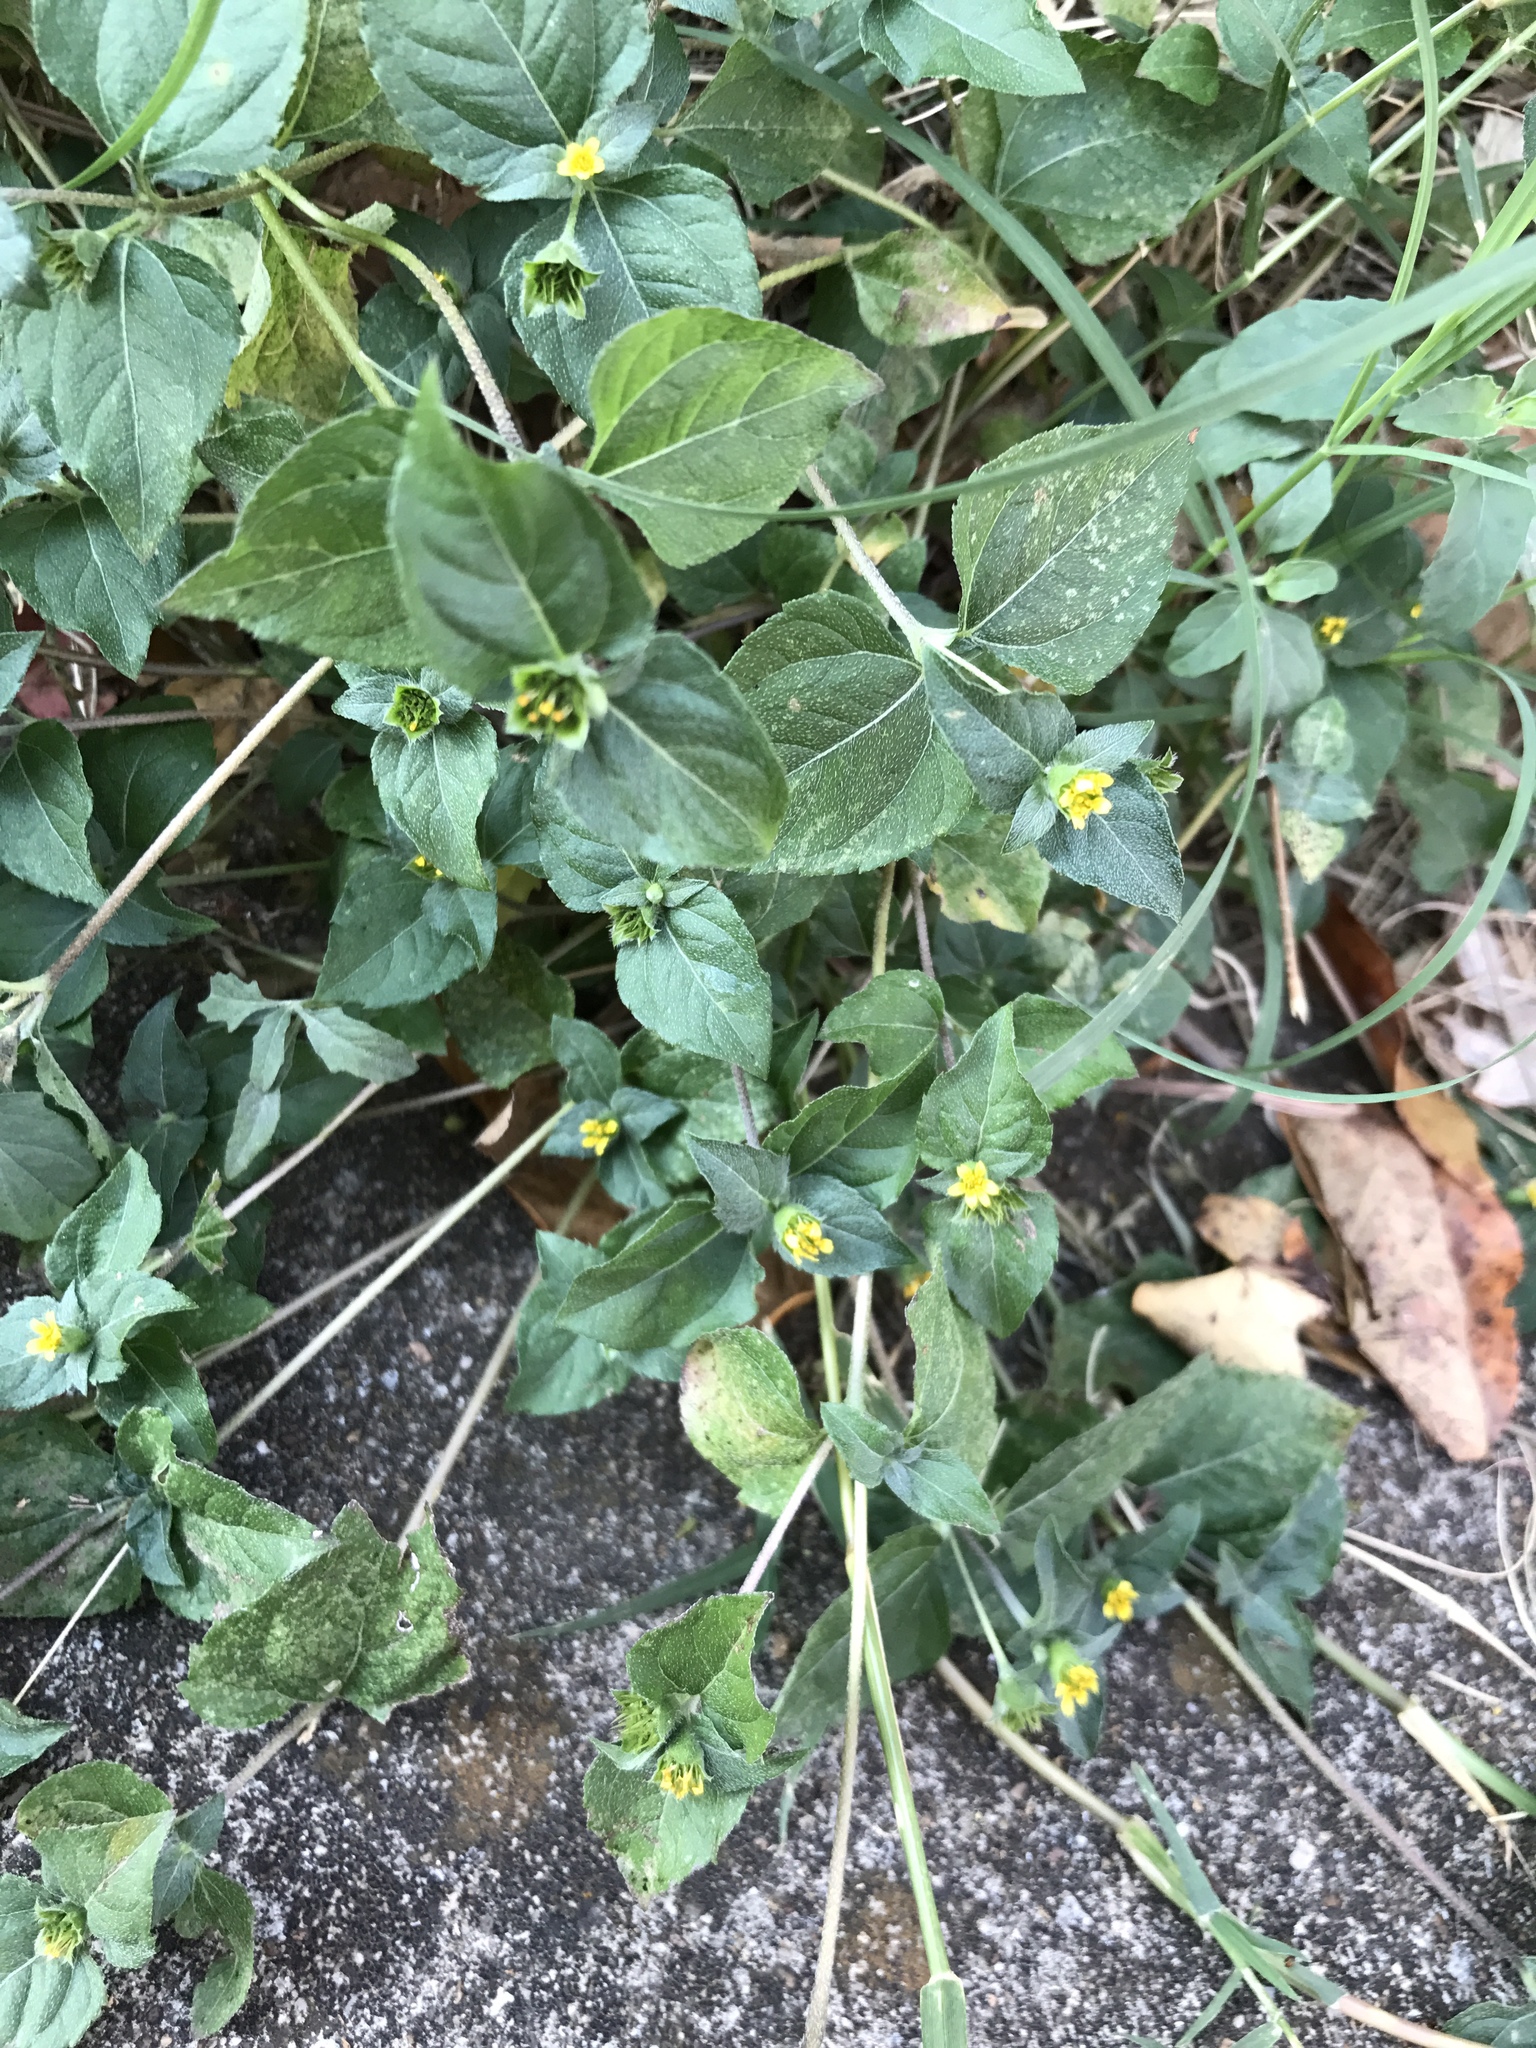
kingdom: Plantae
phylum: Tracheophyta
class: Magnoliopsida
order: Asterales
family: Asteraceae
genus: Calyptocarpus
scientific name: Calyptocarpus vialis
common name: Straggler daisy
